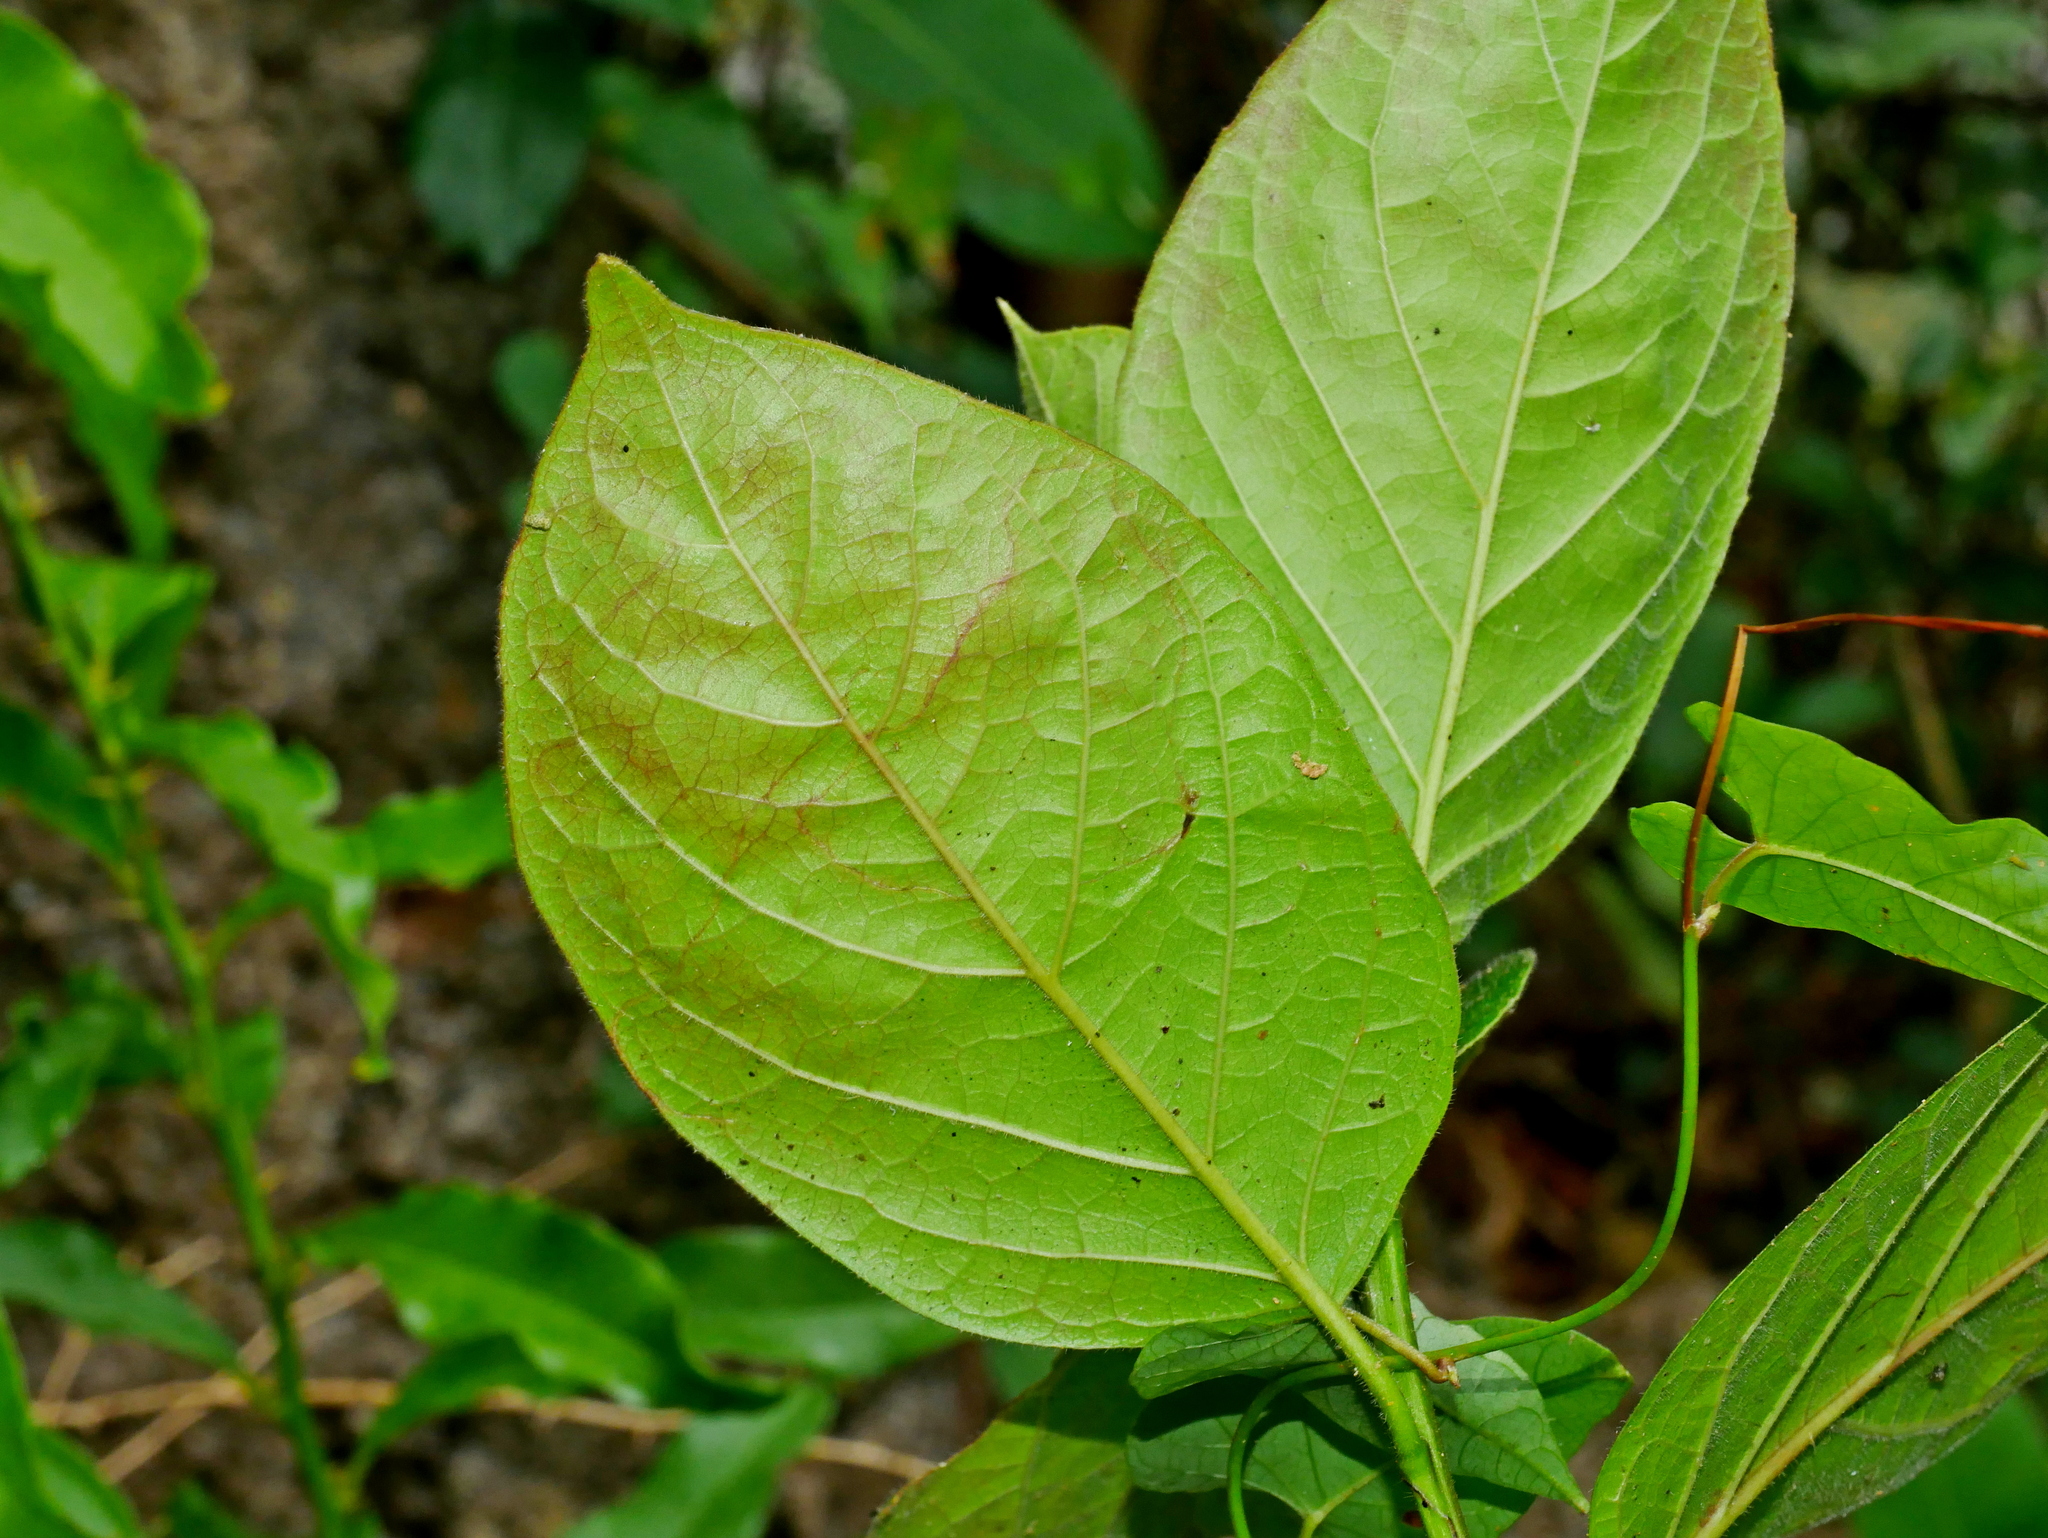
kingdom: Plantae
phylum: Tracheophyta
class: Magnoliopsida
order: Boraginales
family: Ehretiaceae
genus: Ehretia
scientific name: Ehretia resinosa
